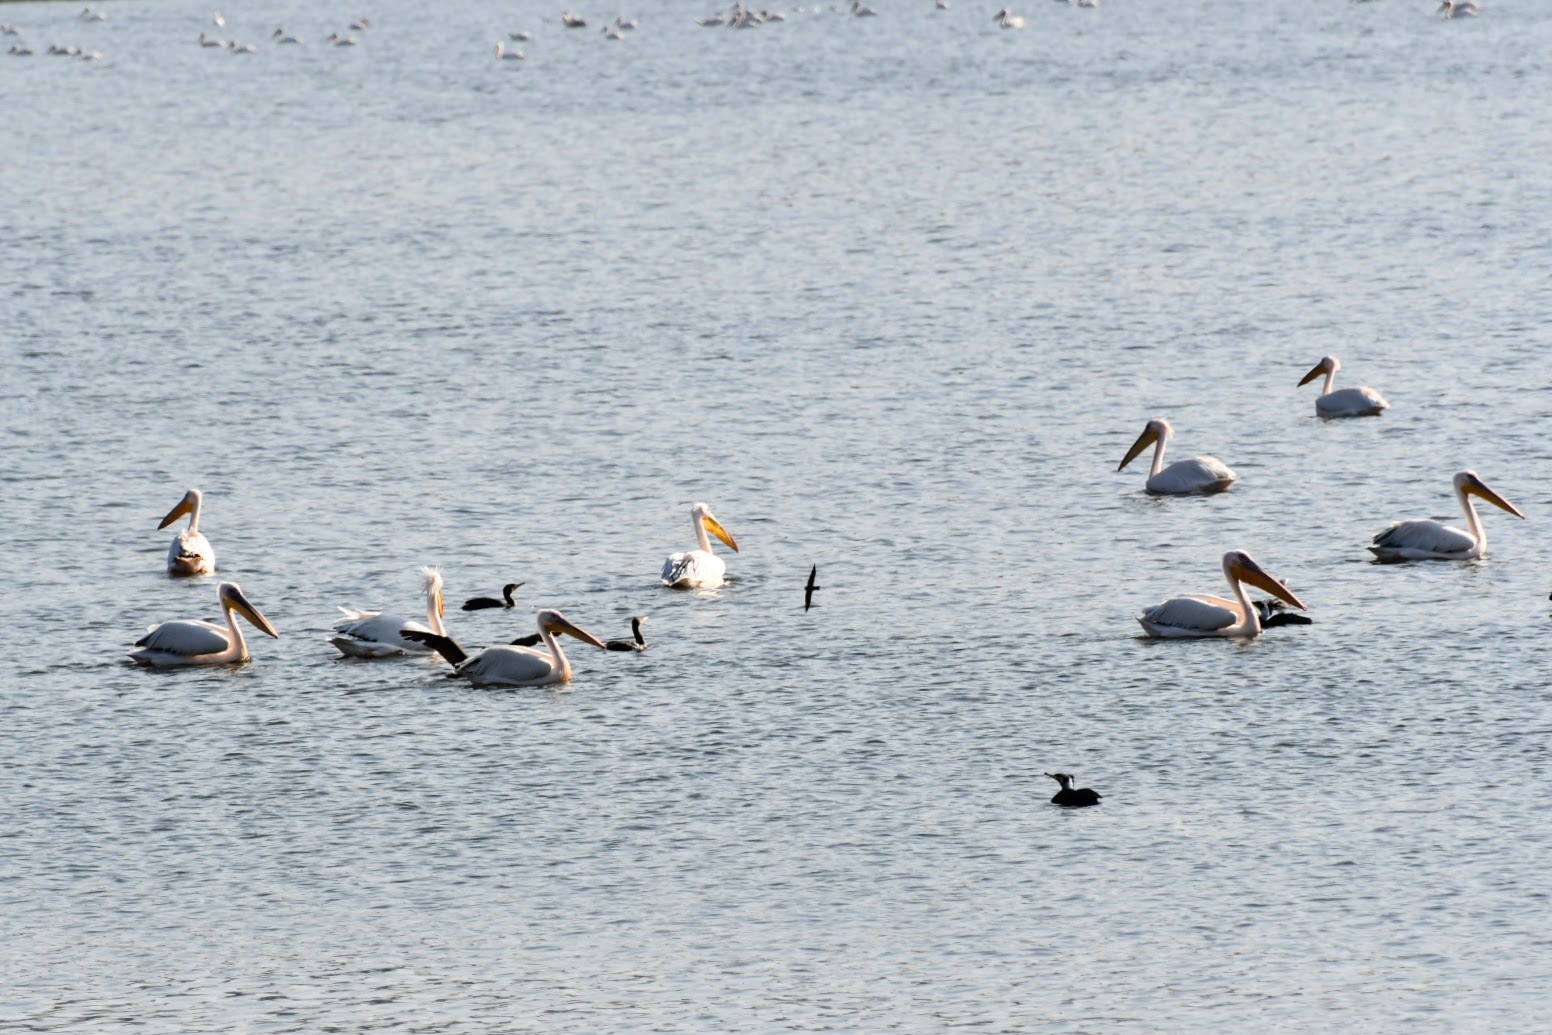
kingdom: Animalia
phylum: Chordata
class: Aves
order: Pelecaniformes
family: Pelecanidae
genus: Pelecanus
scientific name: Pelecanus onocrotalus
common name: Great white pelican
